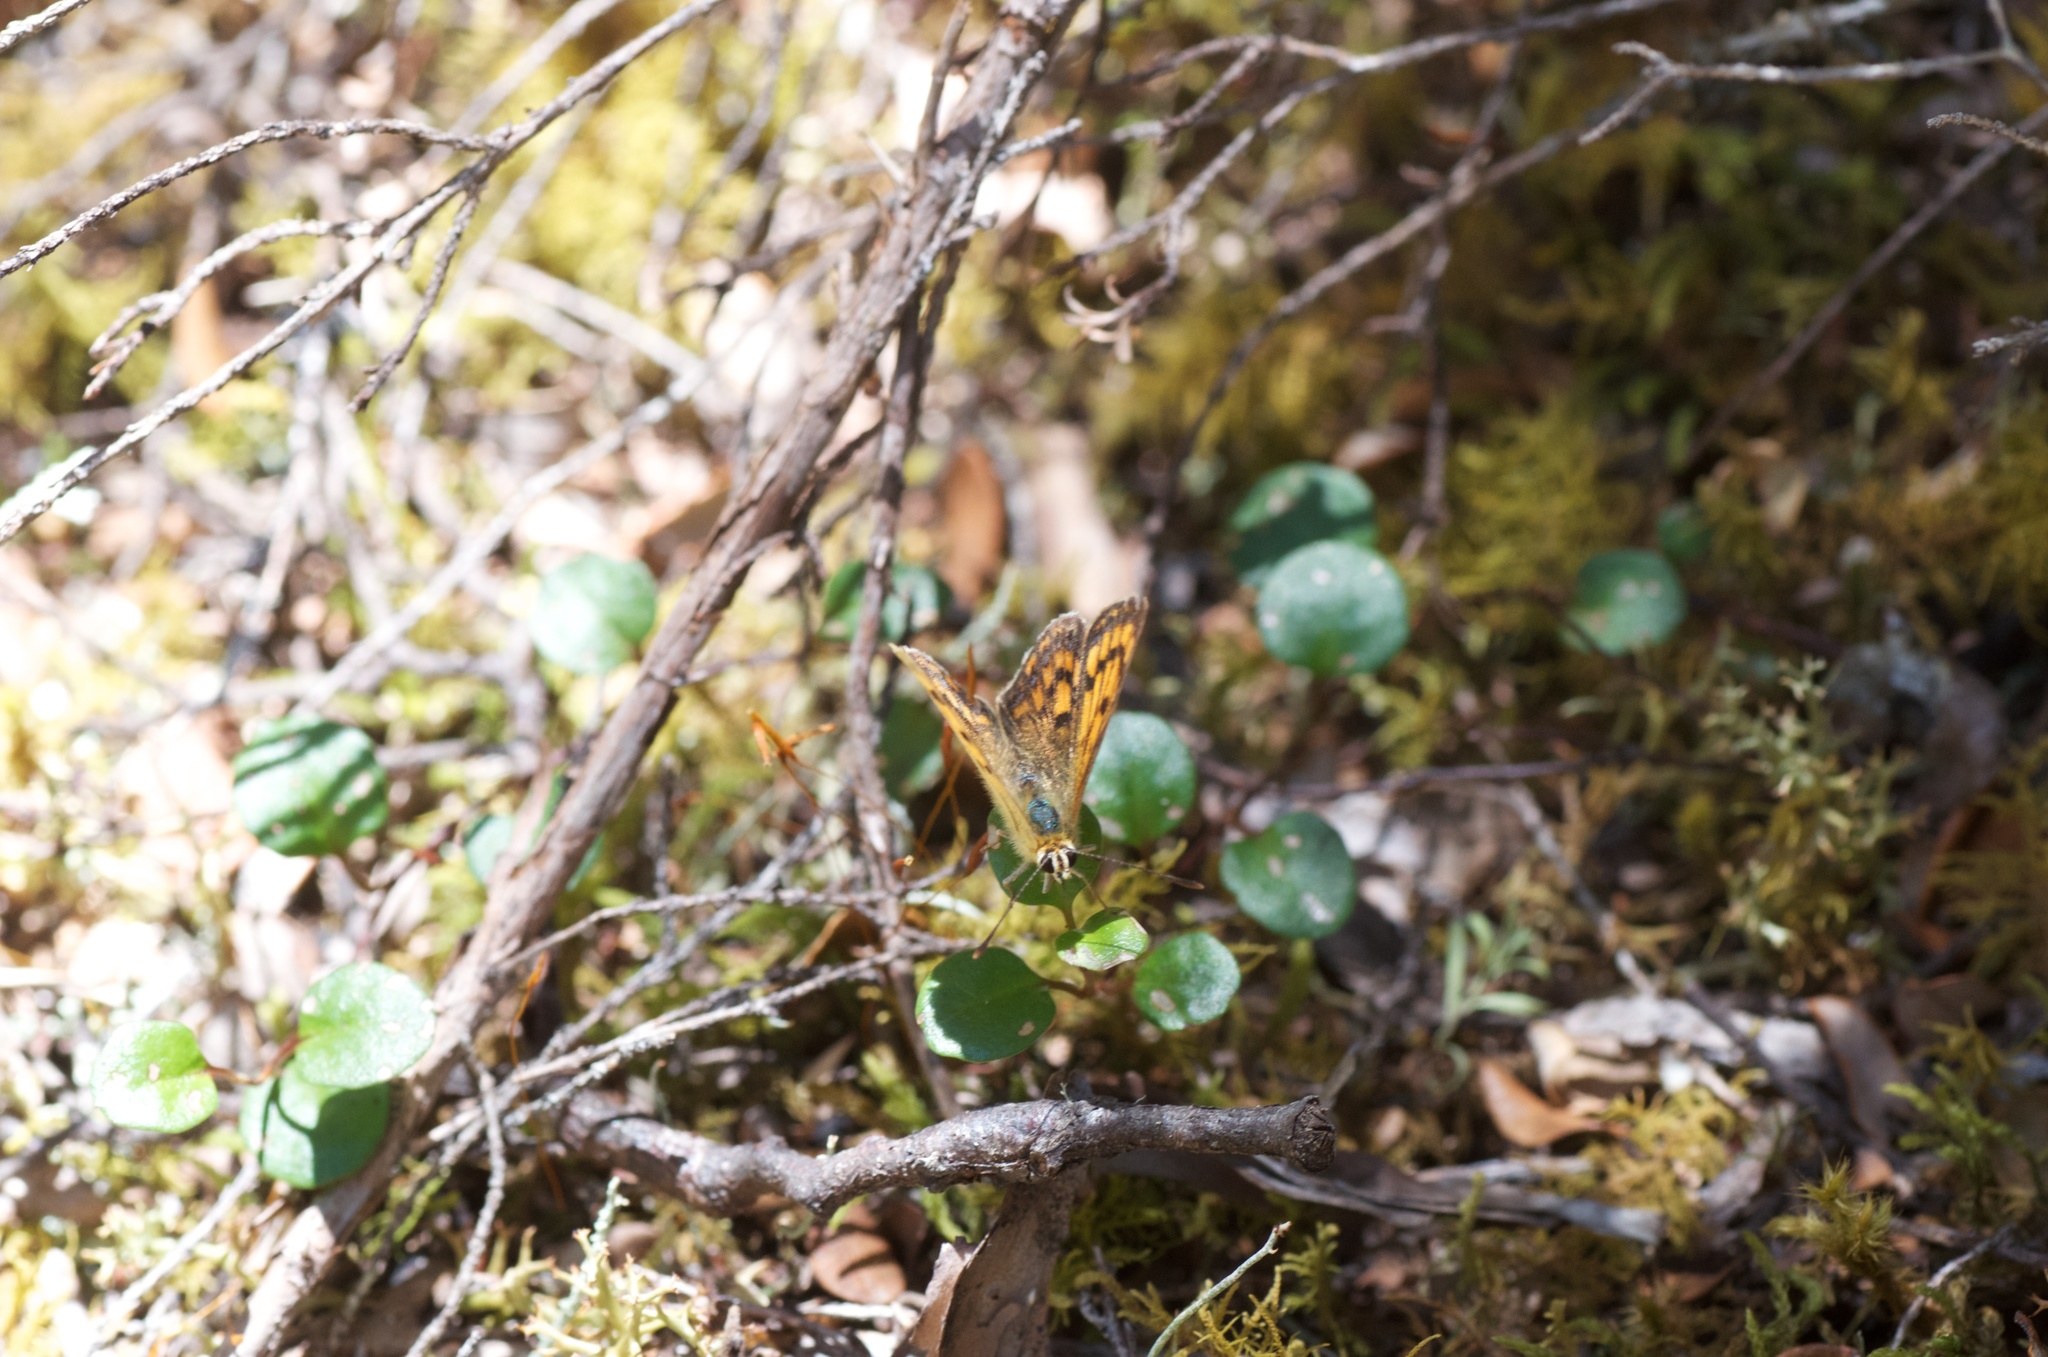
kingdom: Plantae
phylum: Tracheophyta
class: Magnoliopsida
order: Caryophyllales
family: Polygonaceae
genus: Muehlenbeckia
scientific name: Muehlenbeckia axillaris
